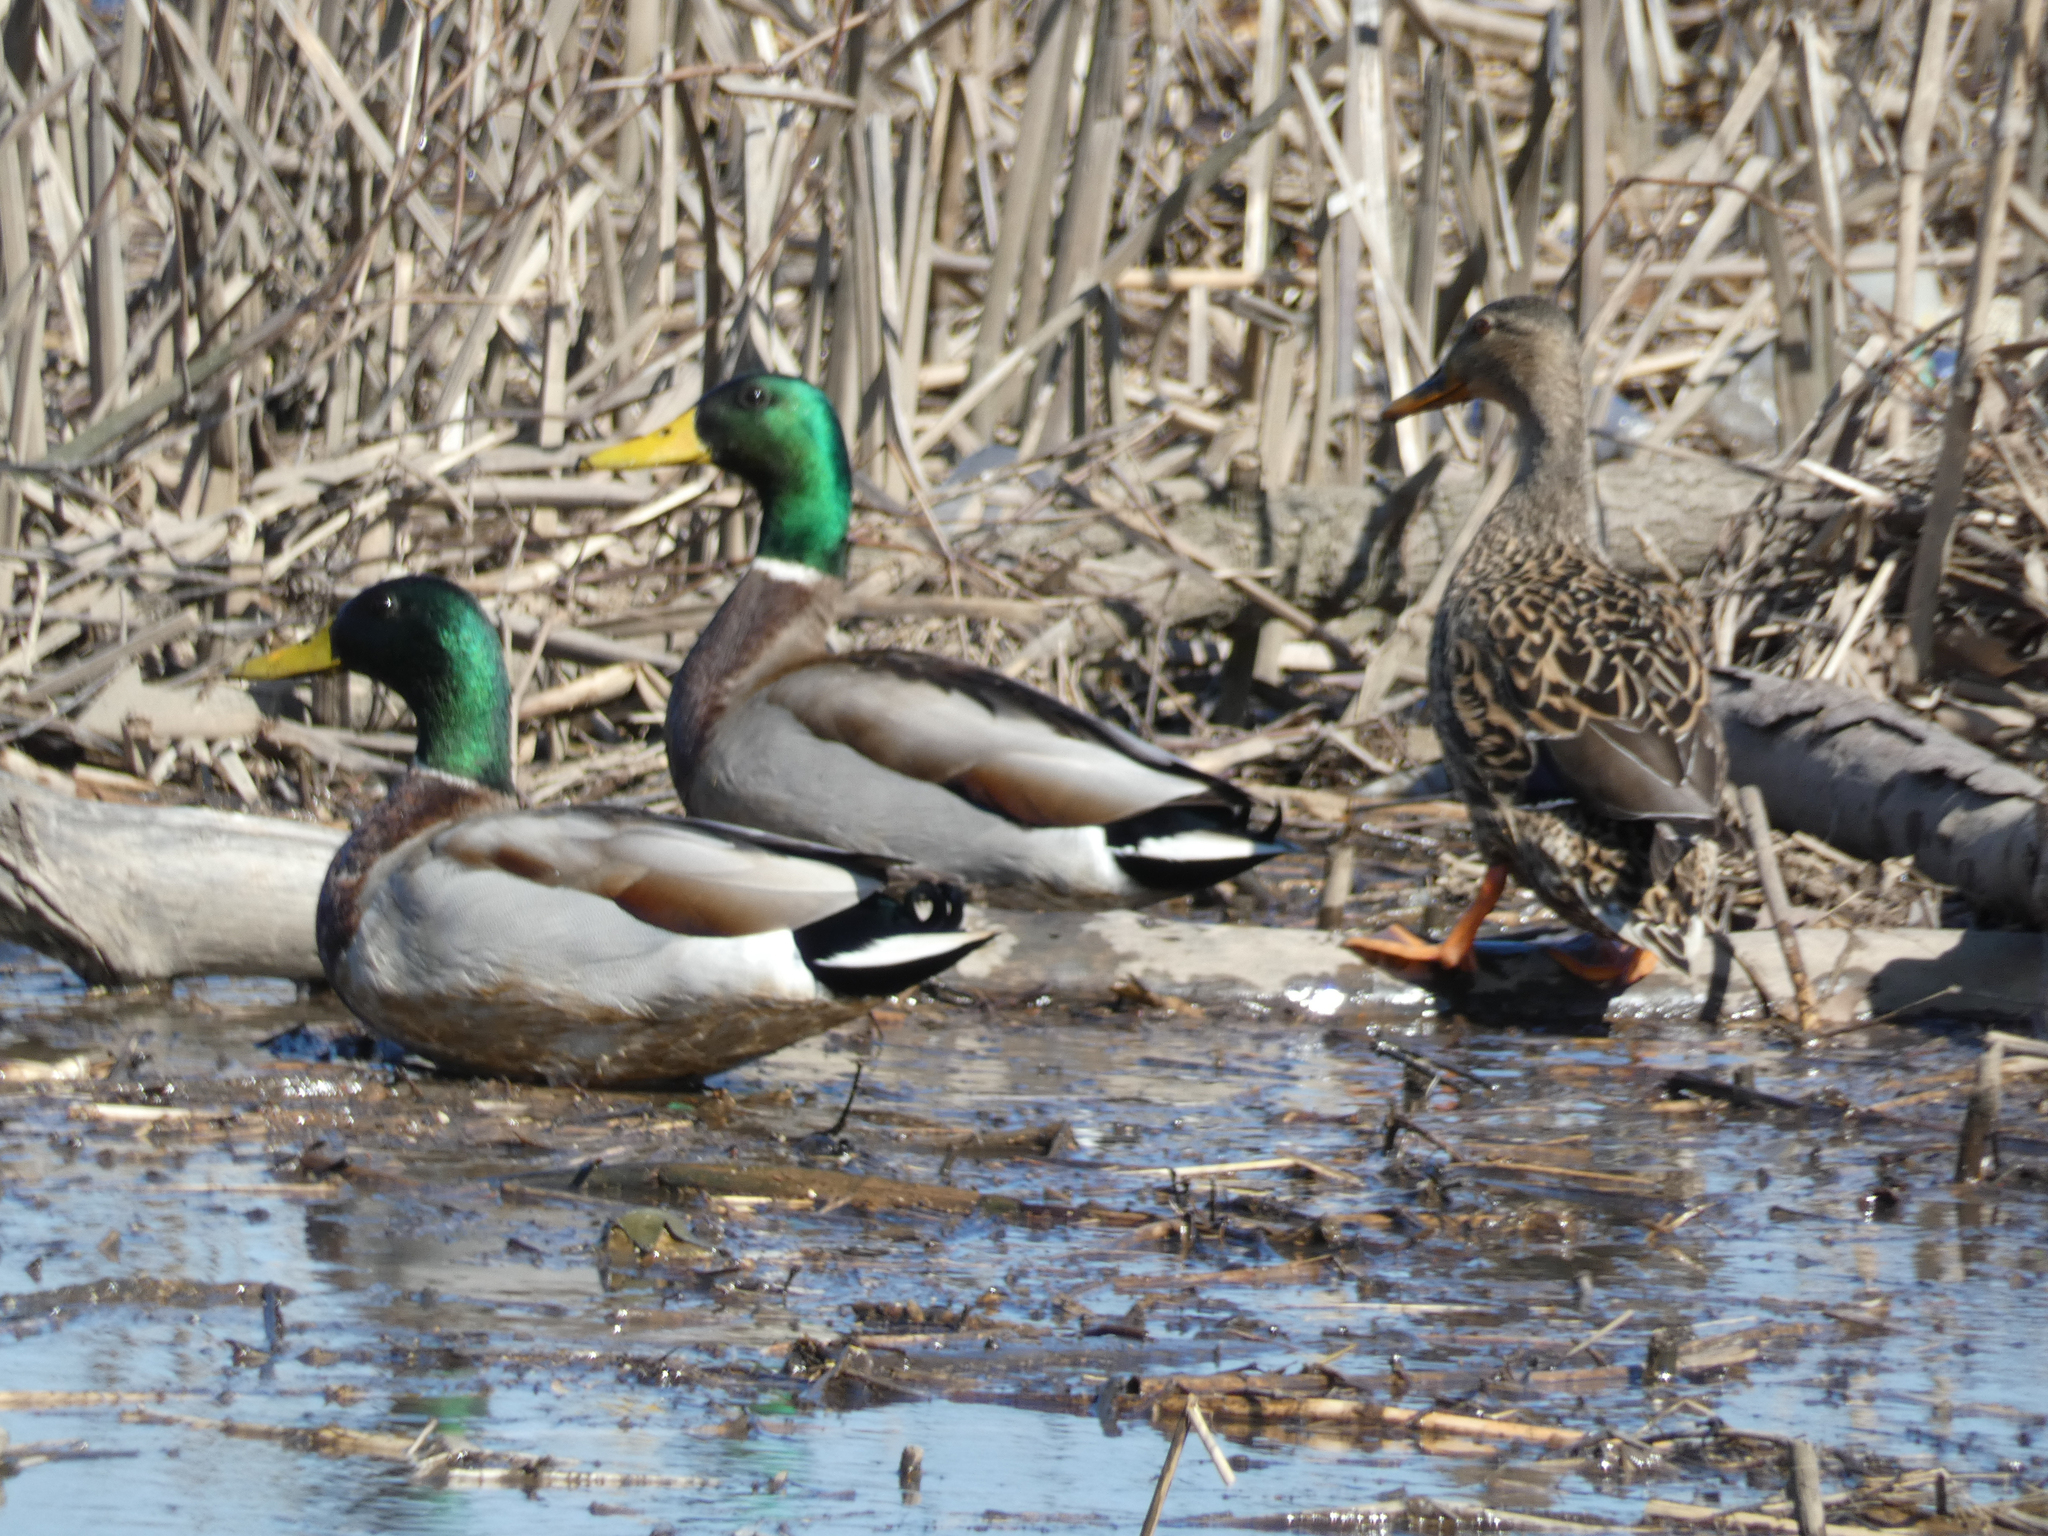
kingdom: Animalia
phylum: Chordata
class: Aves
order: Anseriformes
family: Anatidae
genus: Anas
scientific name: Anas platyrhynchos
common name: Mallard
